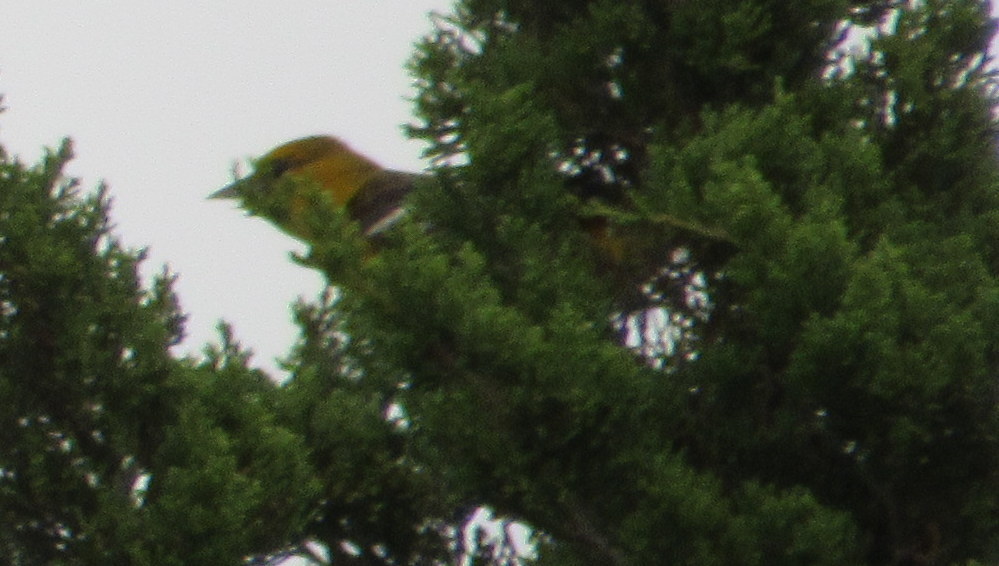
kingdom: Animalia
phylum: Chordata
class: Aves
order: Passeriformes
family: Icteridae
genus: Icterus
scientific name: Icterus galbula
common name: Baltimore oriole
